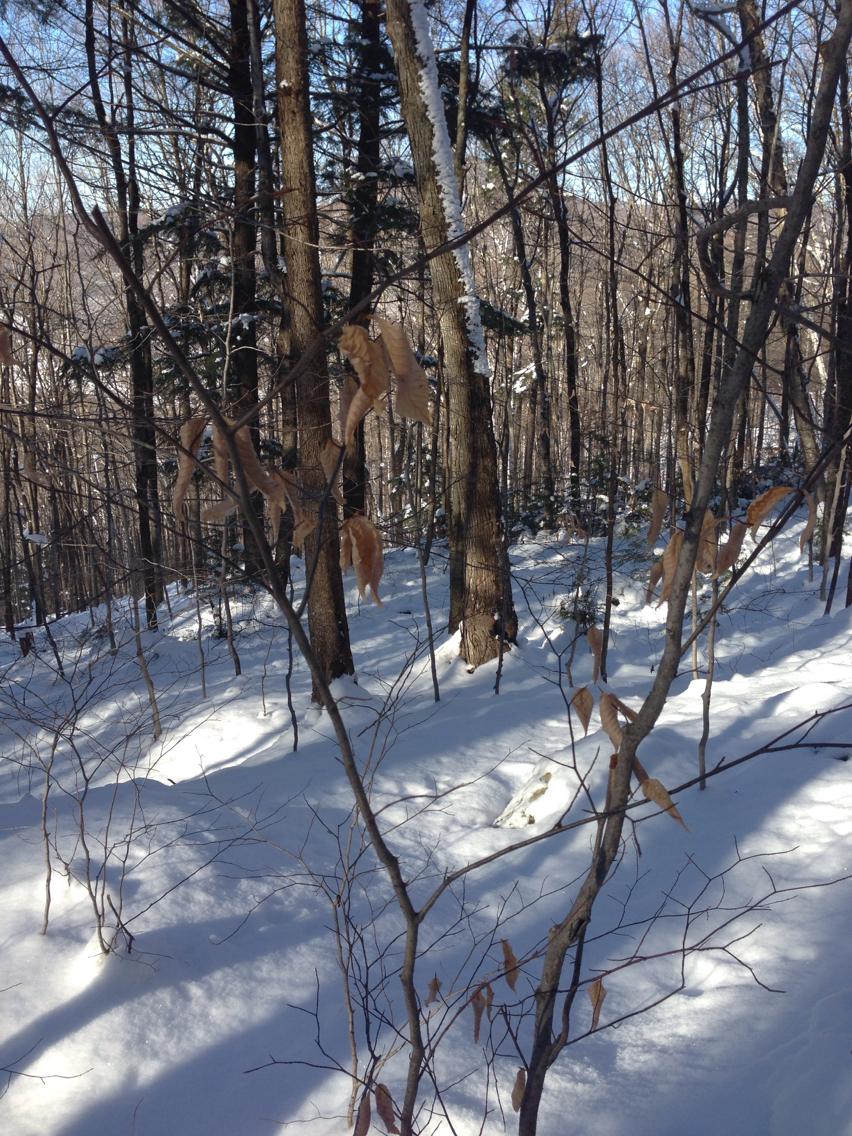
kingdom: Plantae
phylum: Tracheophyta
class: Magnoliopsida
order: Fagales
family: Fagaceae
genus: Fagus
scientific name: Fagus grandifolia
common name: American beech
